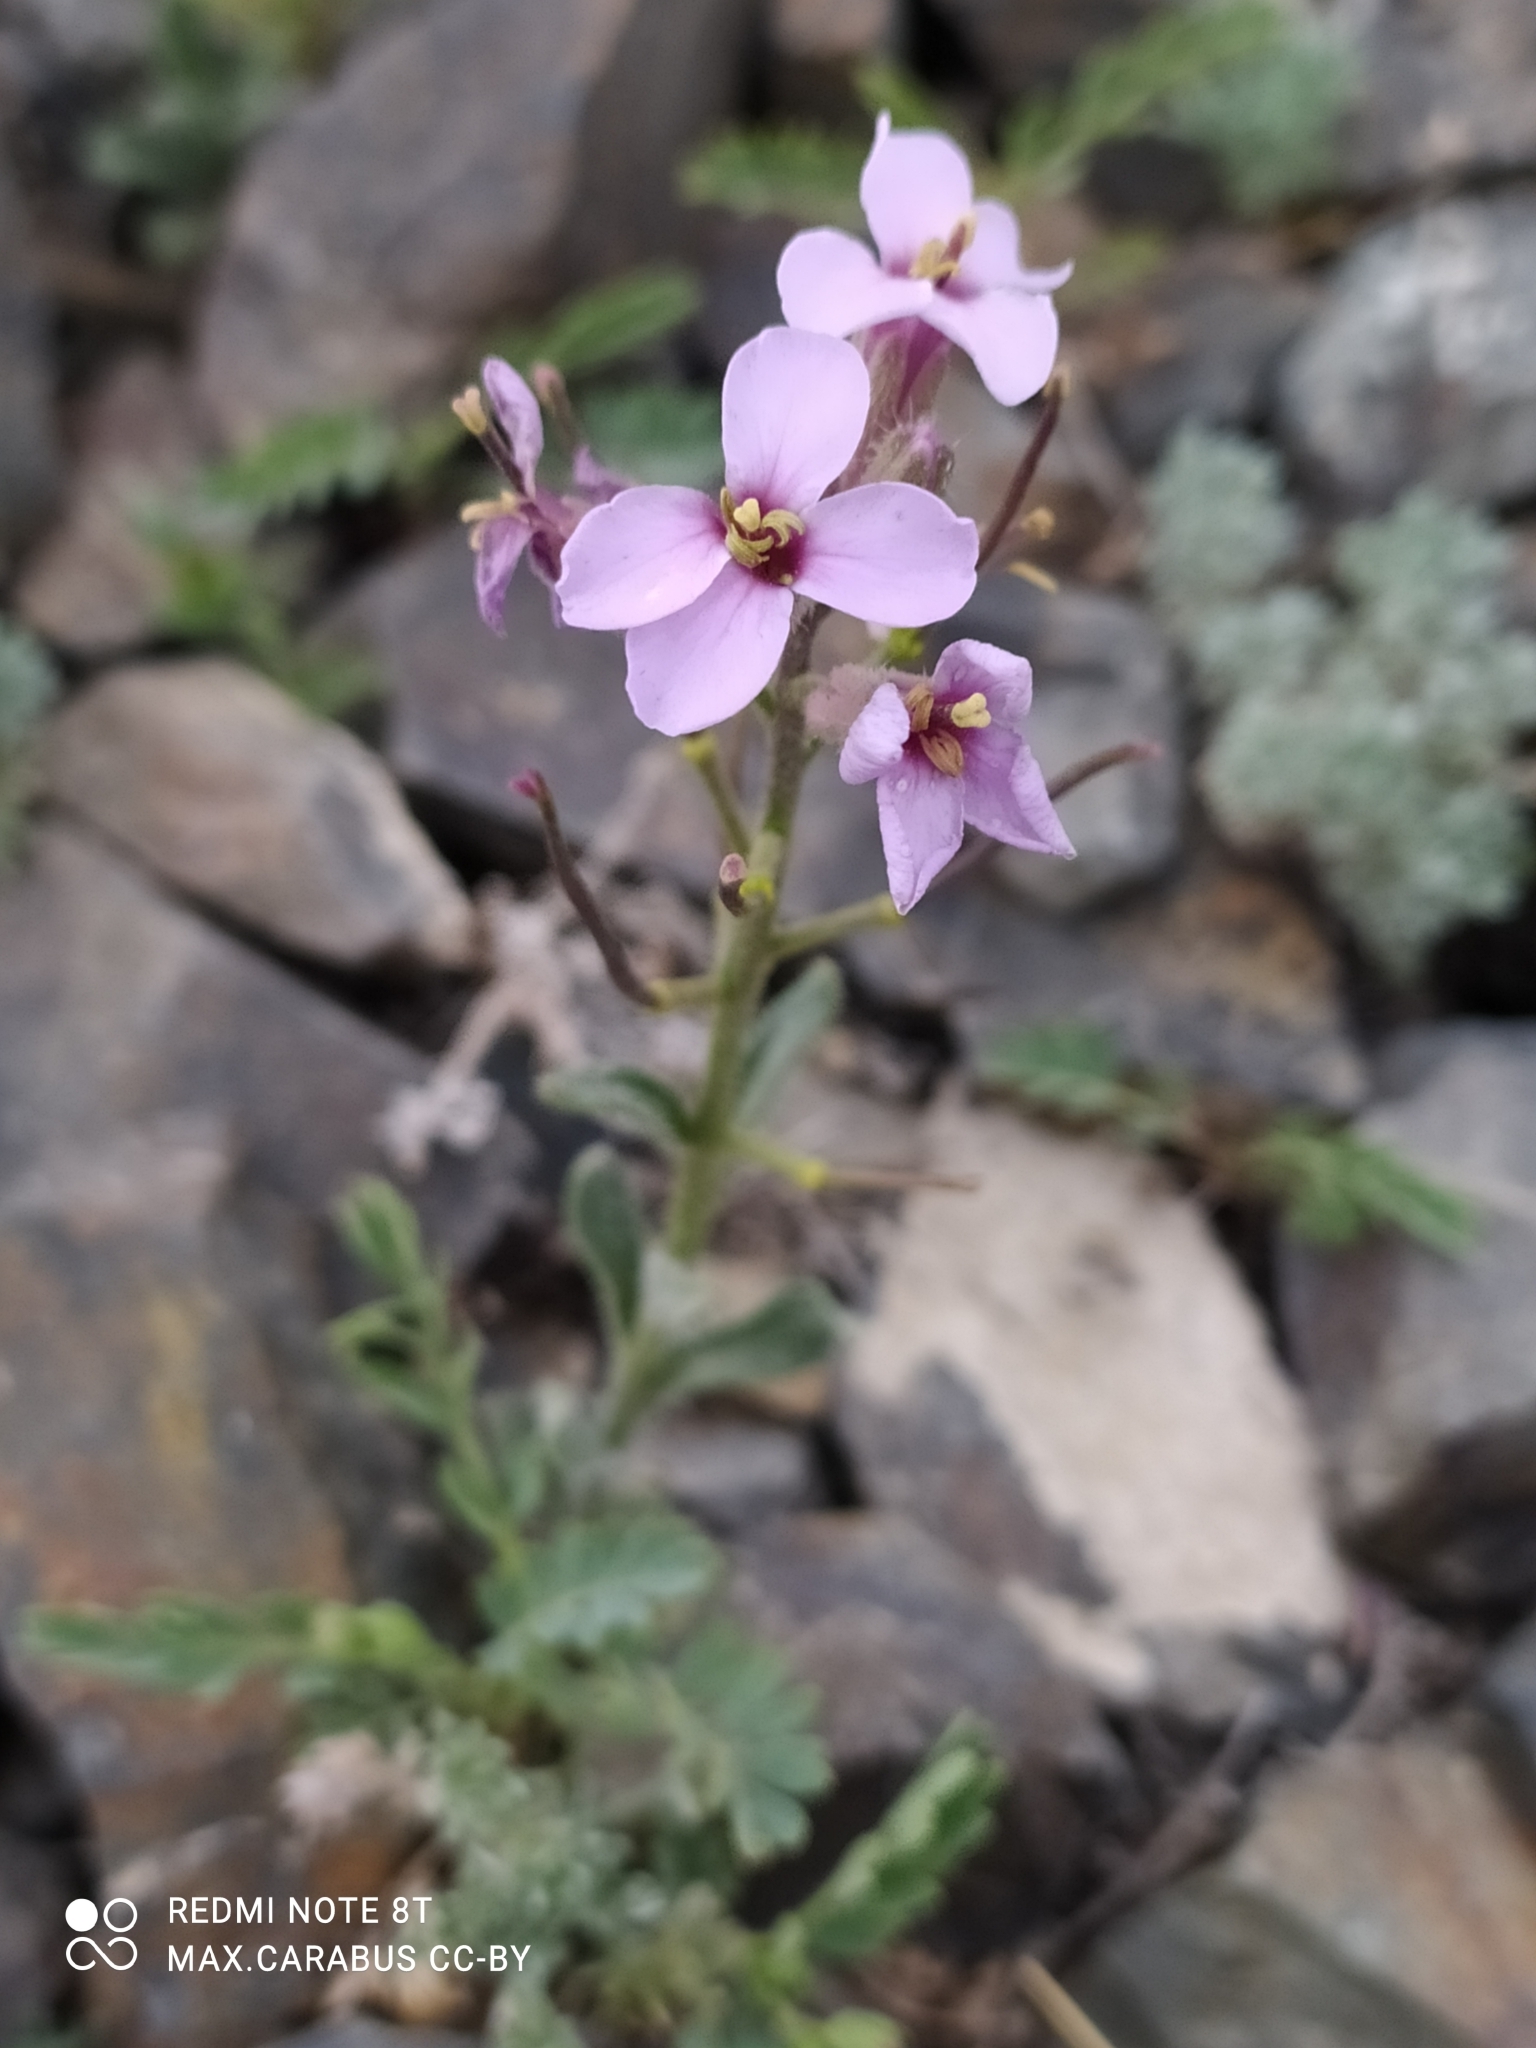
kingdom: Plantae
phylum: Tracheophyta
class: Magnoliopsida
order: Brassicales
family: Brassicaceae
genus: Clausia
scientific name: Clausia aprica
